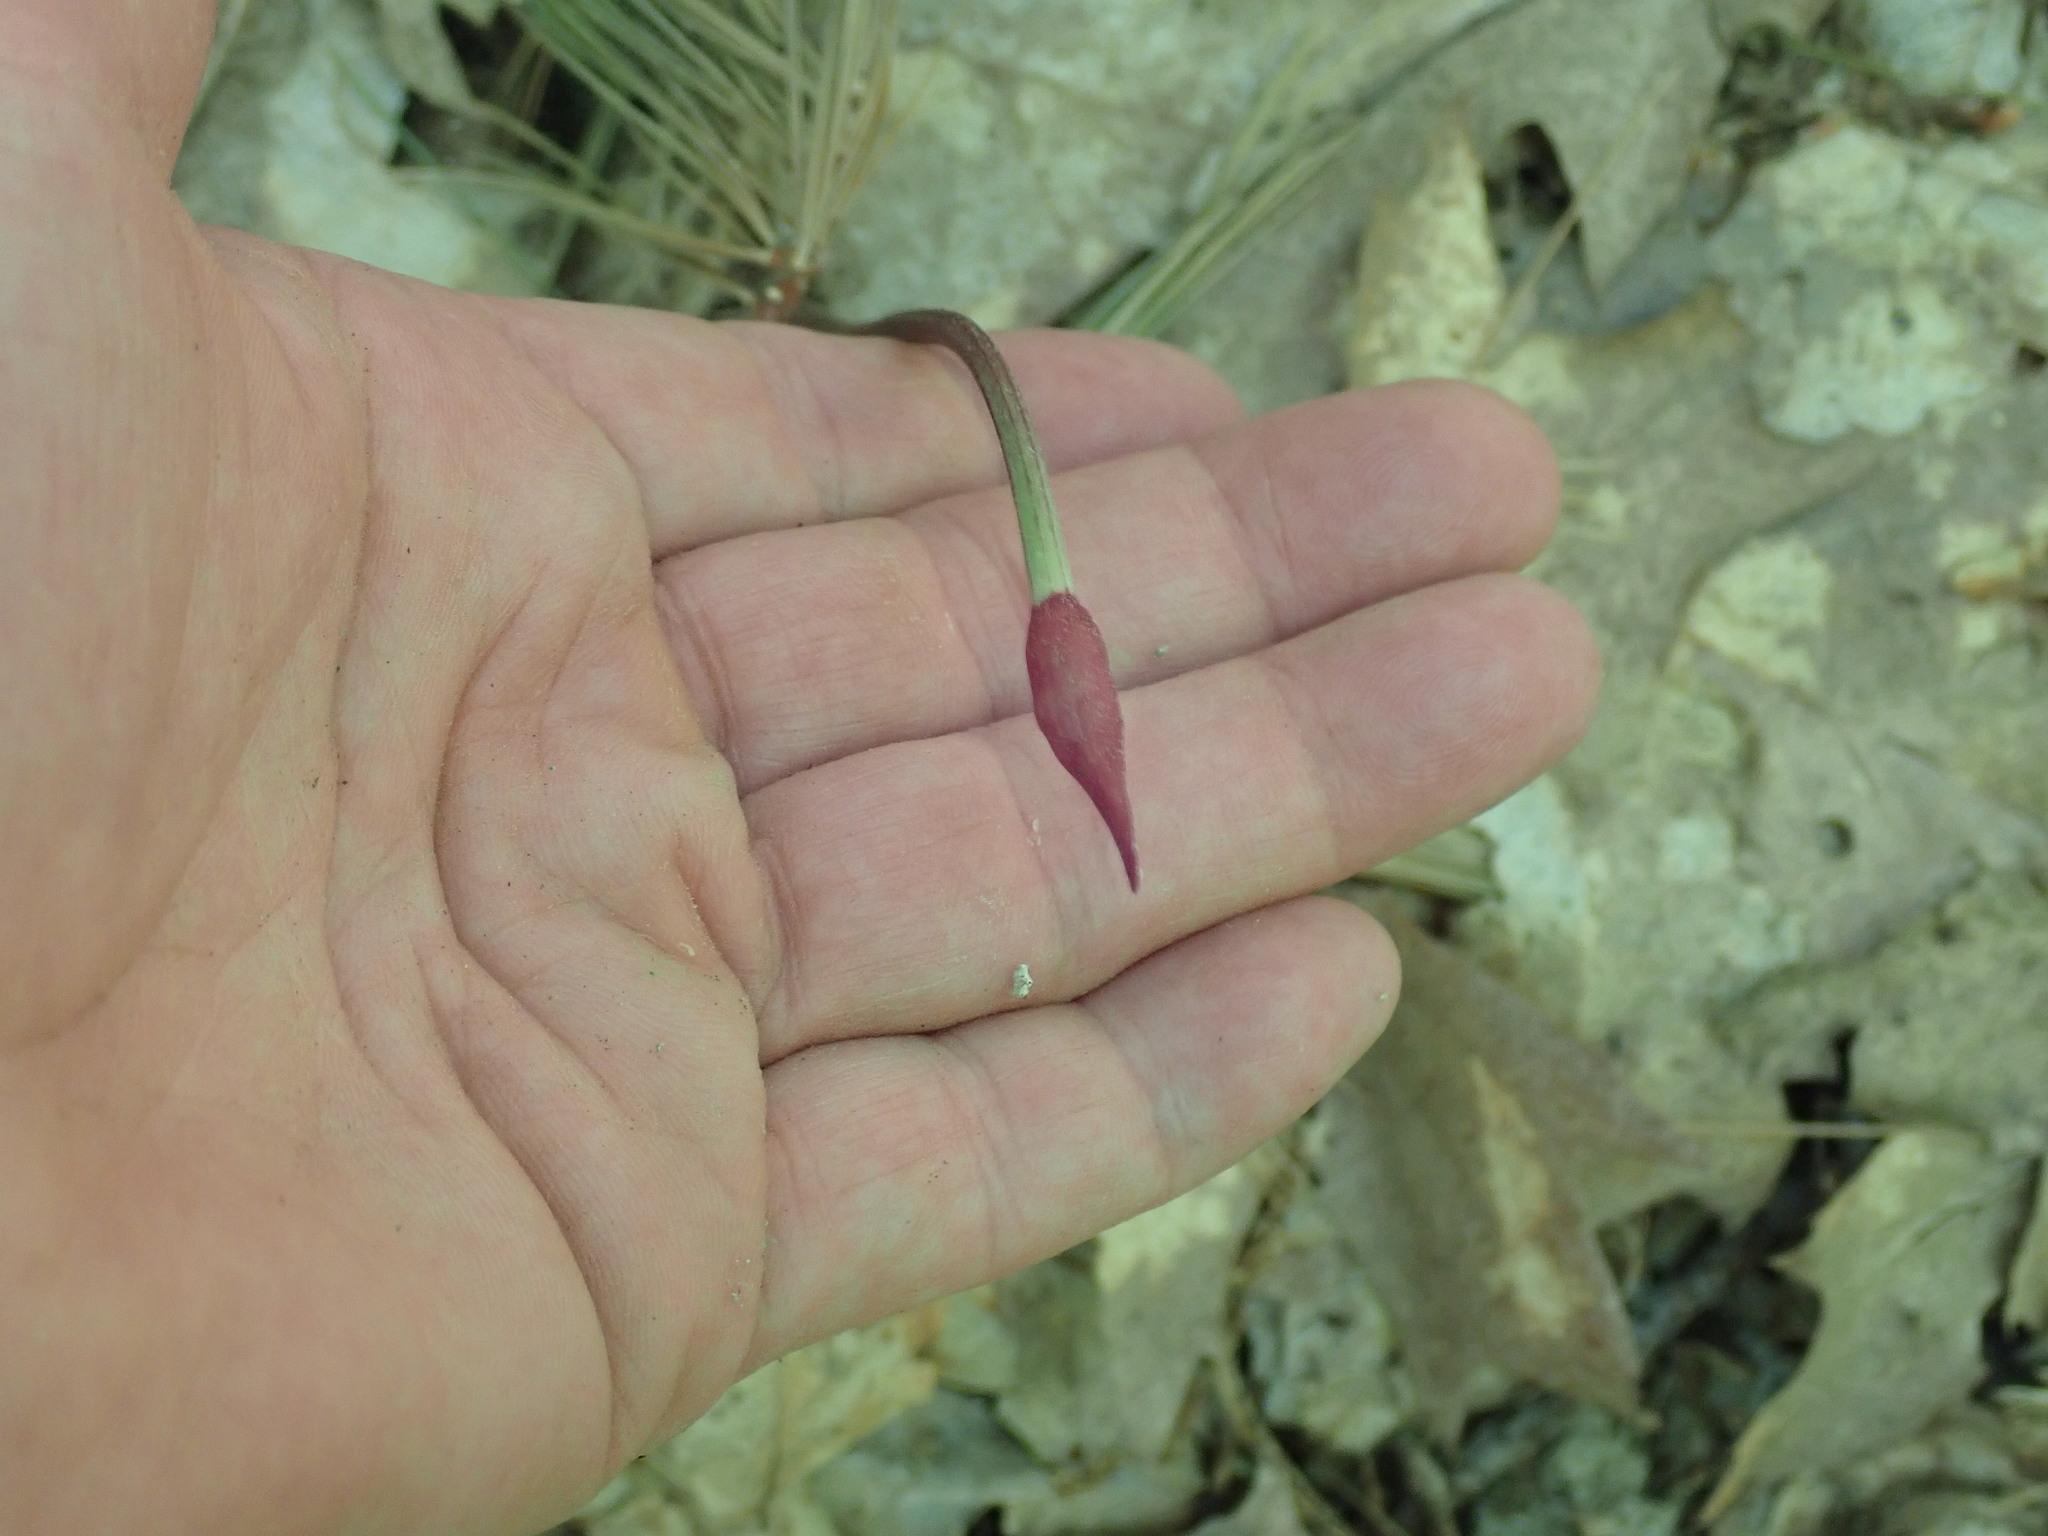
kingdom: Plantae
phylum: Tracheophyta
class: Liliopsida
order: Asparagales
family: Amaryllidaceae
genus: Allium
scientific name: Allium tricoccum
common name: Ramp
